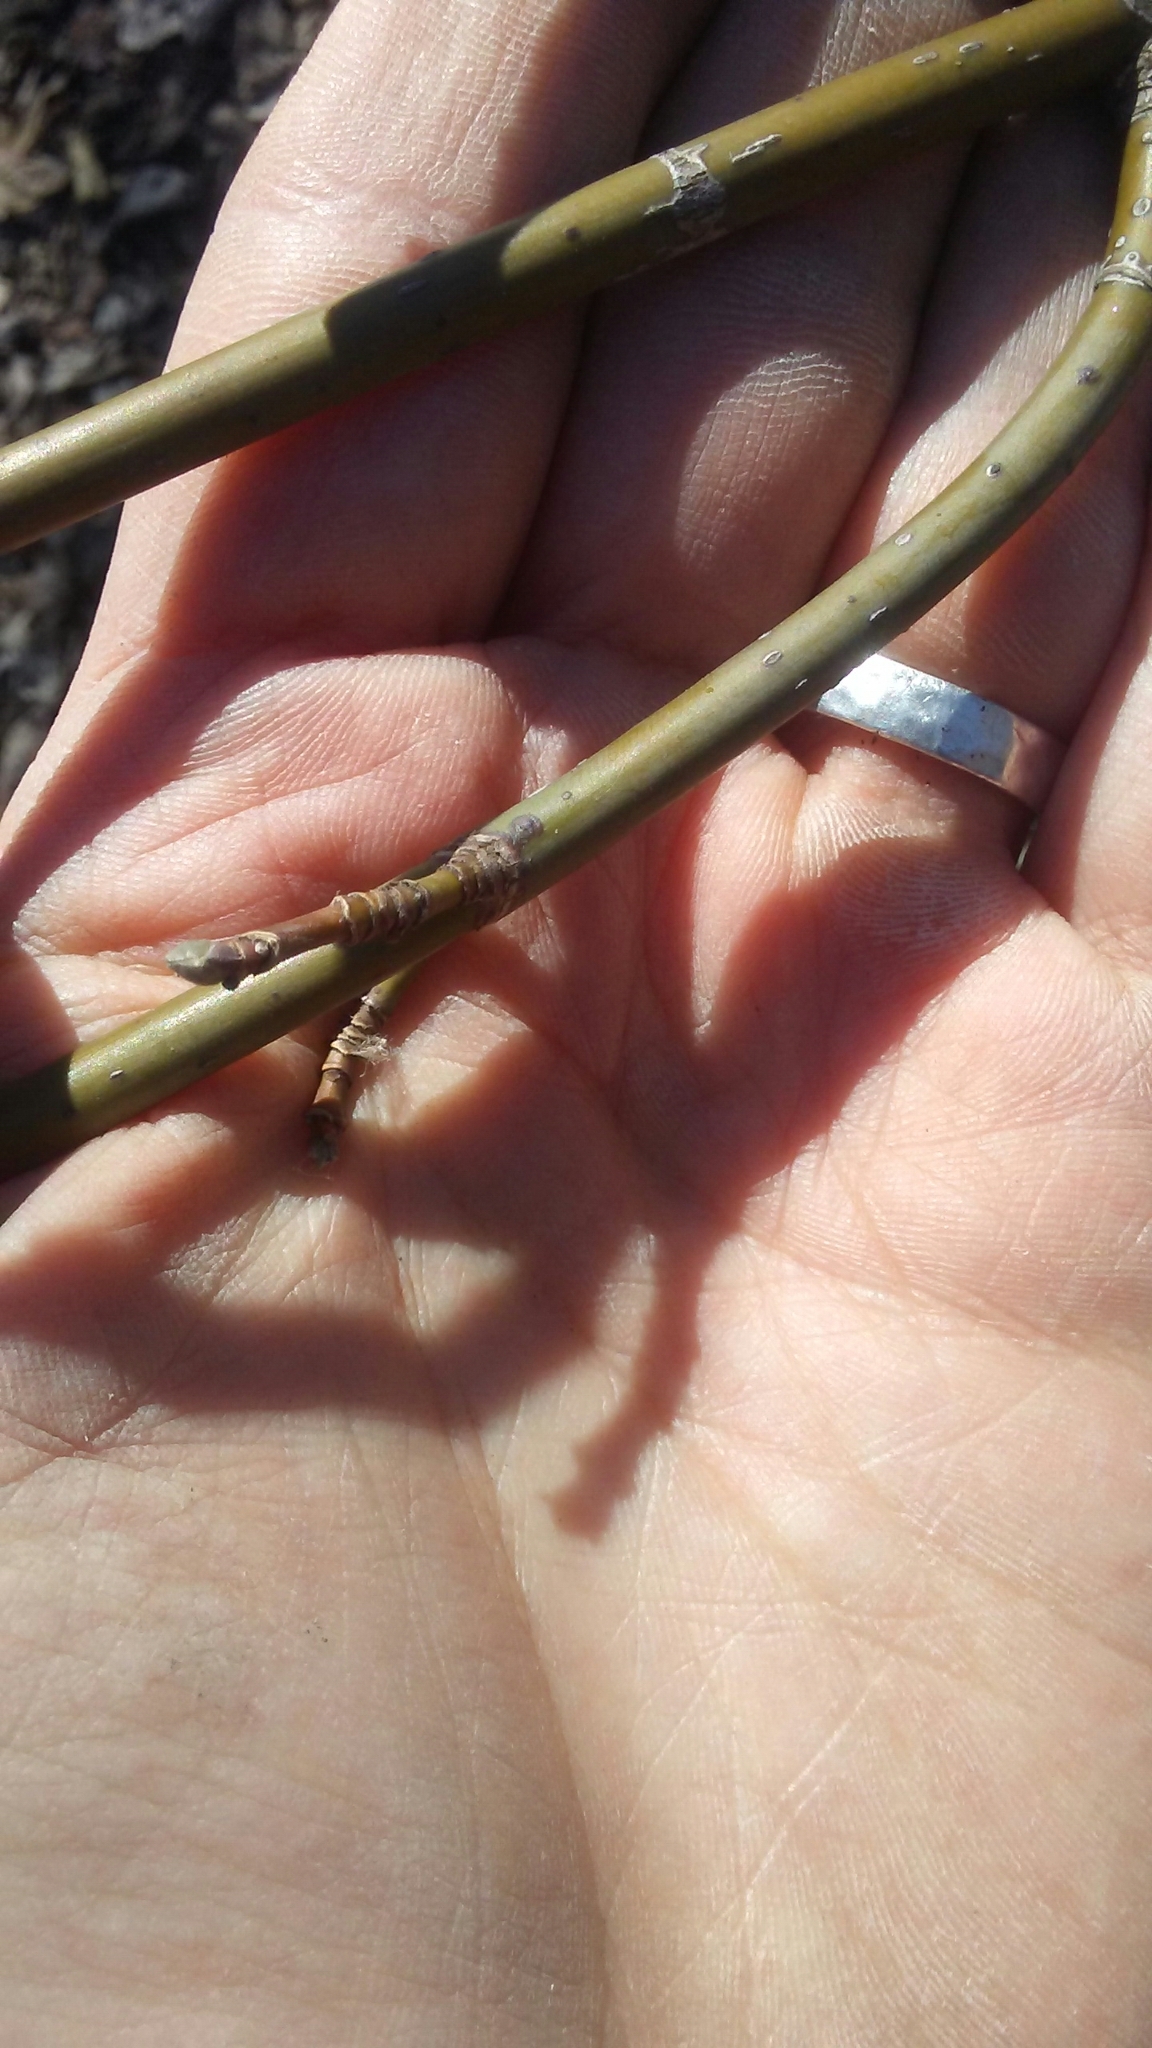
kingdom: Plantae
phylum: Tracheophyta
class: Magnoliopsida
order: Sapindales
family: Sapindaceae
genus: Acer
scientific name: Acer negundo
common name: Ashleaf maple
